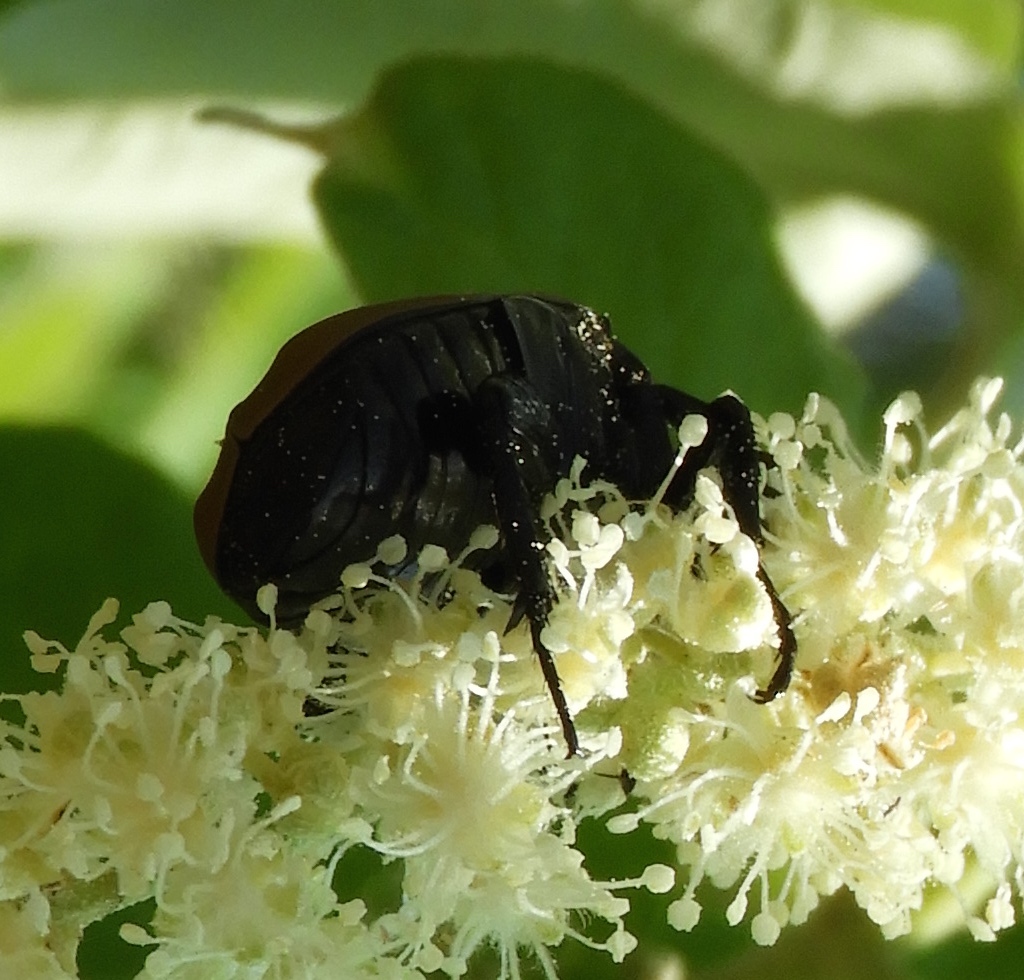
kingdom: Animalia
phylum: Arthropoda
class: Insecta
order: Coleoptera
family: Scarabaeidae
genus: Hologymnetis
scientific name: Hologymnetis cinerea
